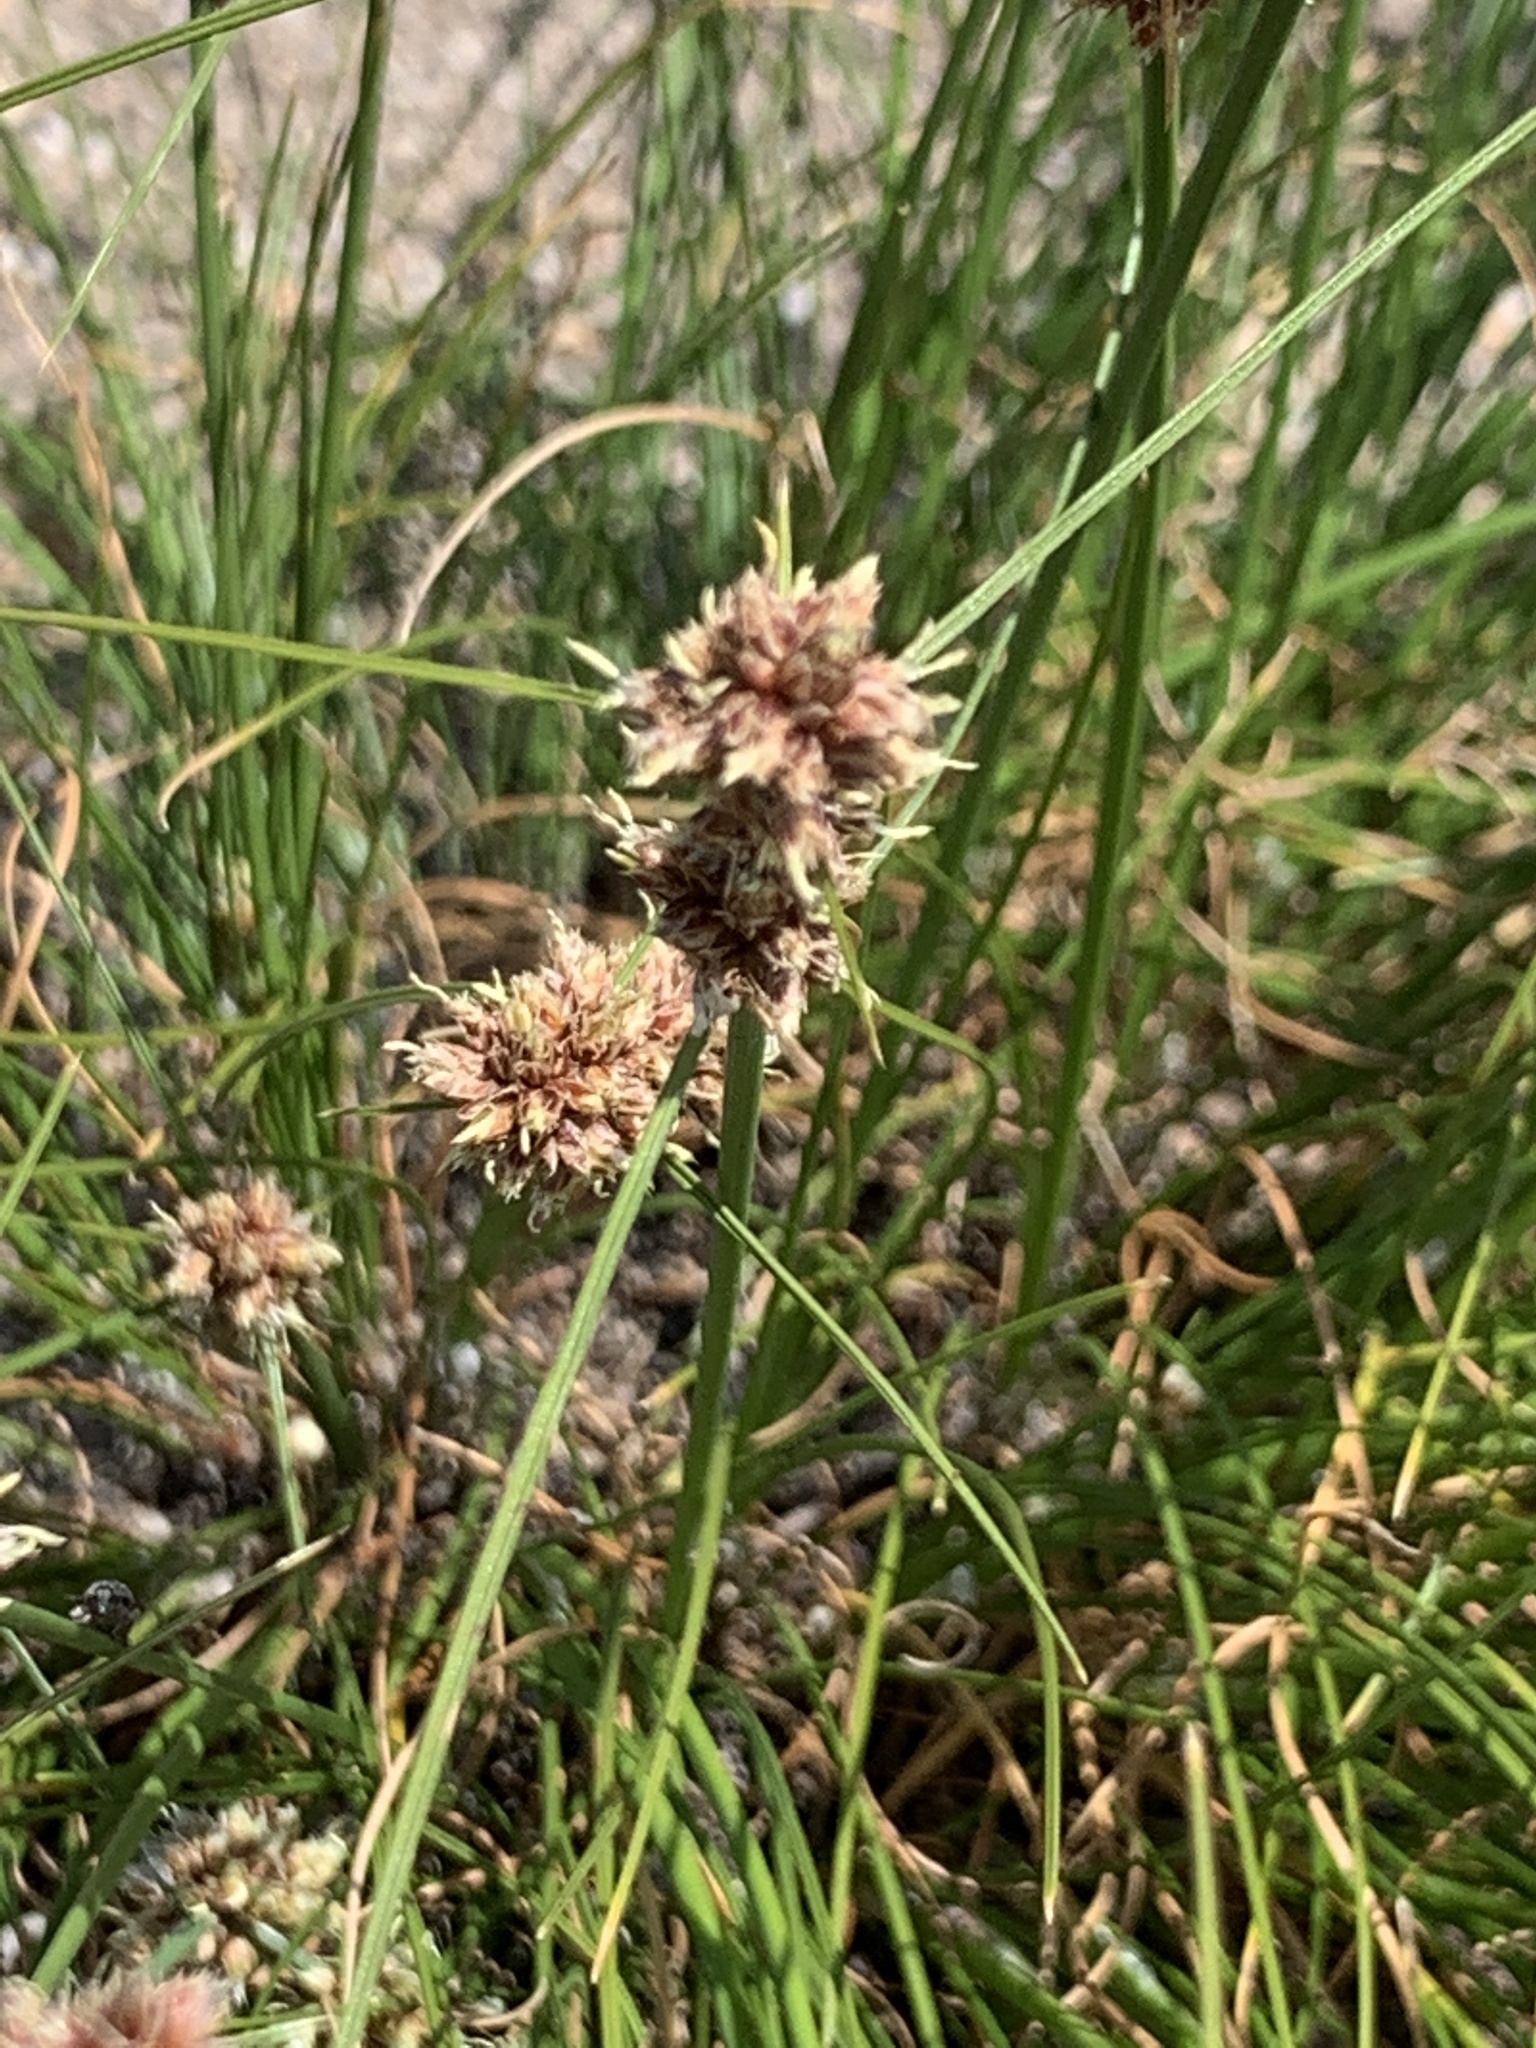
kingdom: Plantae
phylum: Tracheophyta
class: Liliopsida
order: Poales
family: Cyperaceae
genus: Ficinia
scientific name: Ficinia bulbosa
